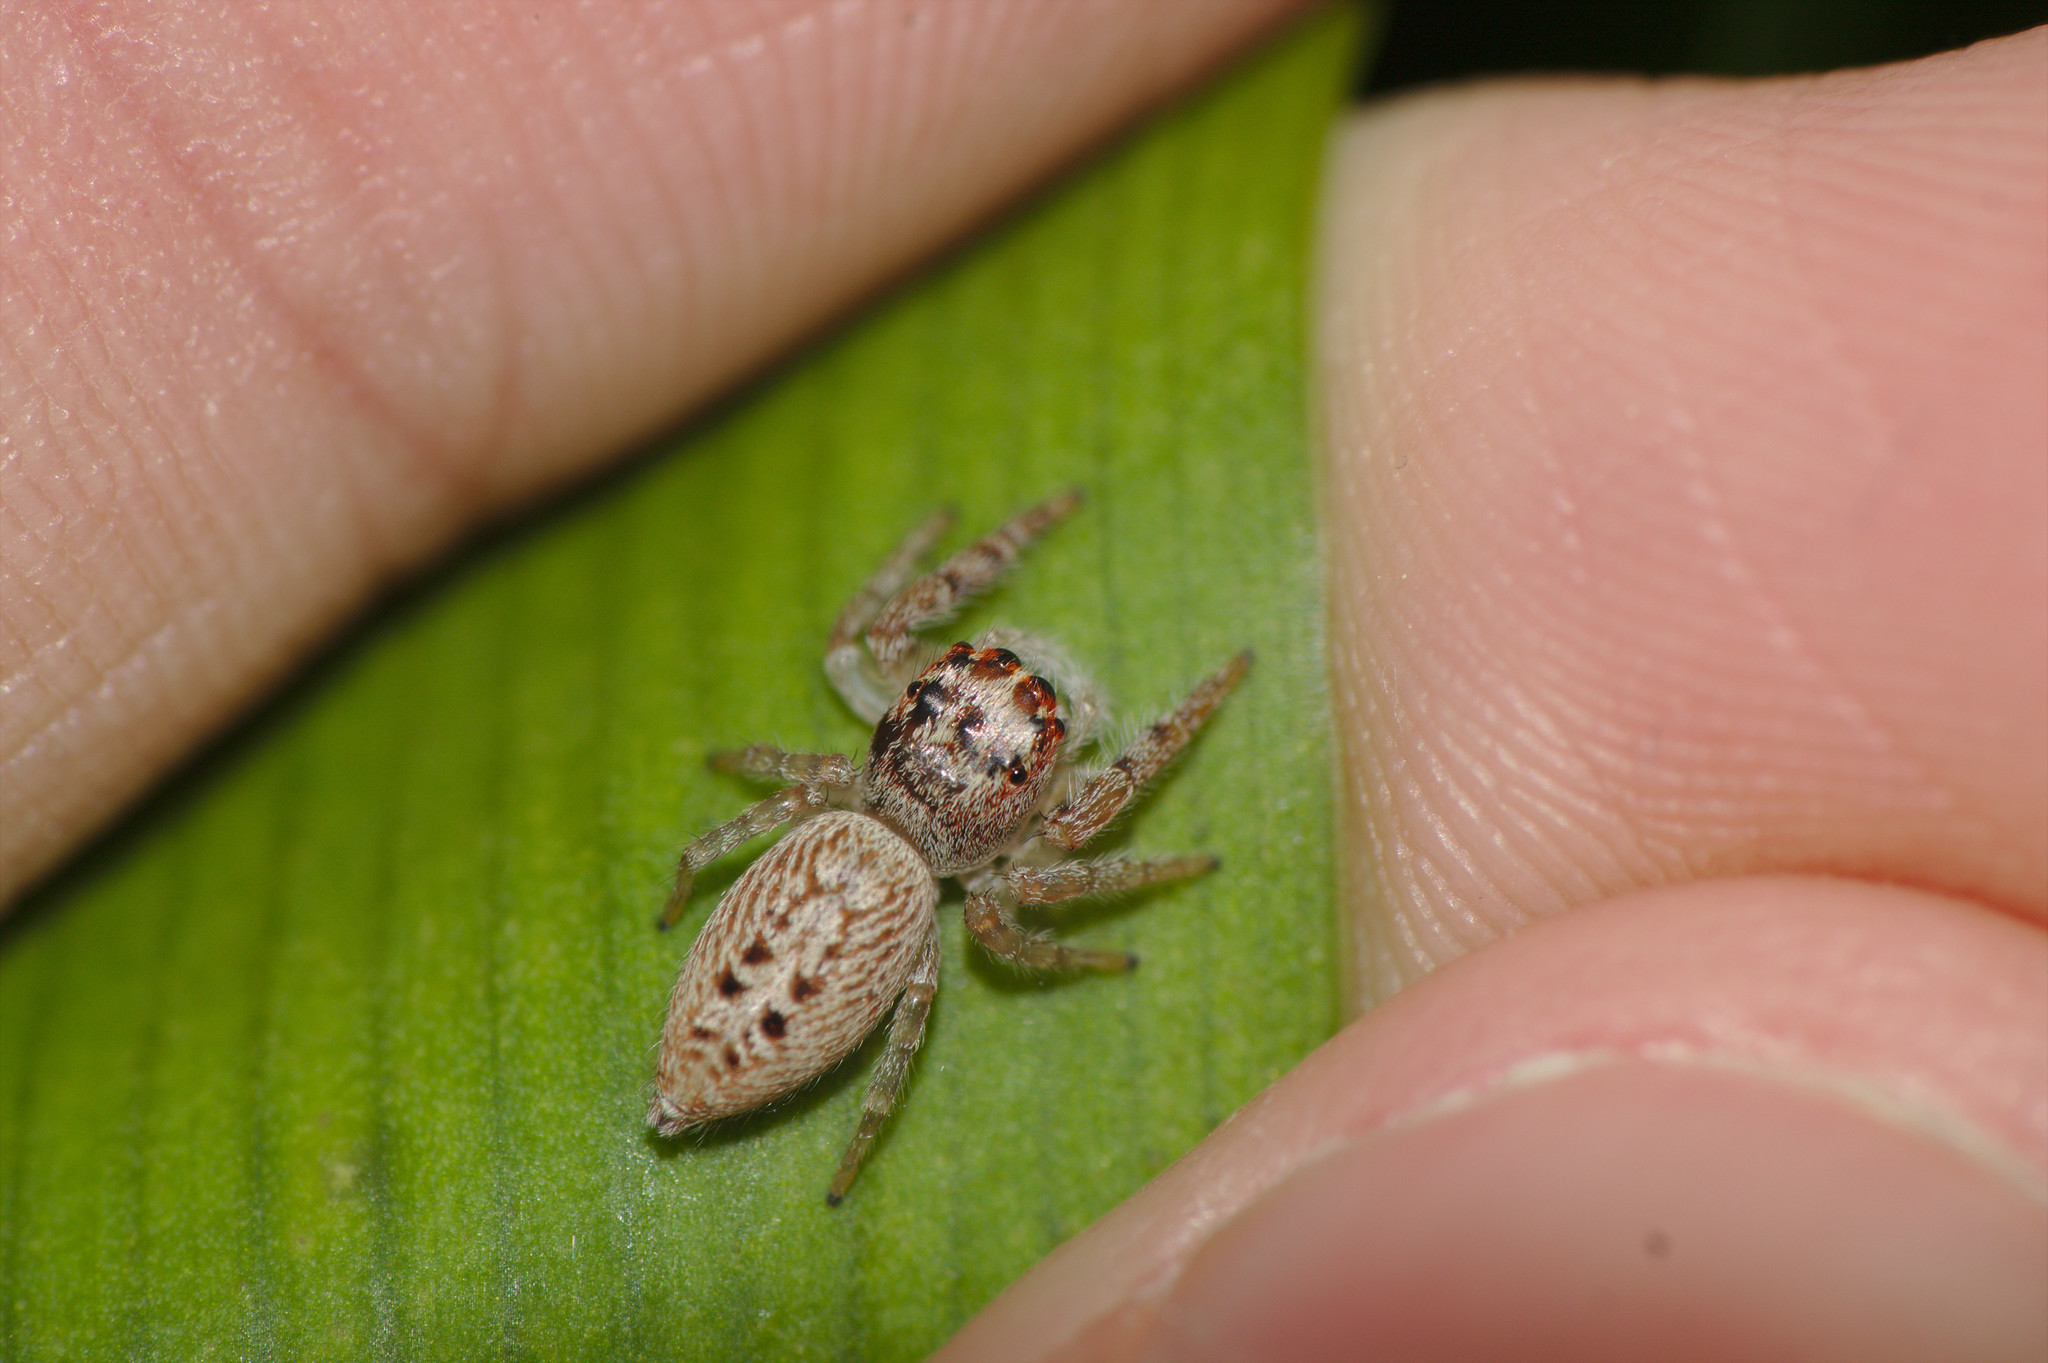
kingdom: Animalia
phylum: Arthropoda
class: Arachnida
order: Araneae
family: Salticidae
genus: Opisthoncus
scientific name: Opisthoncus polyphemus
